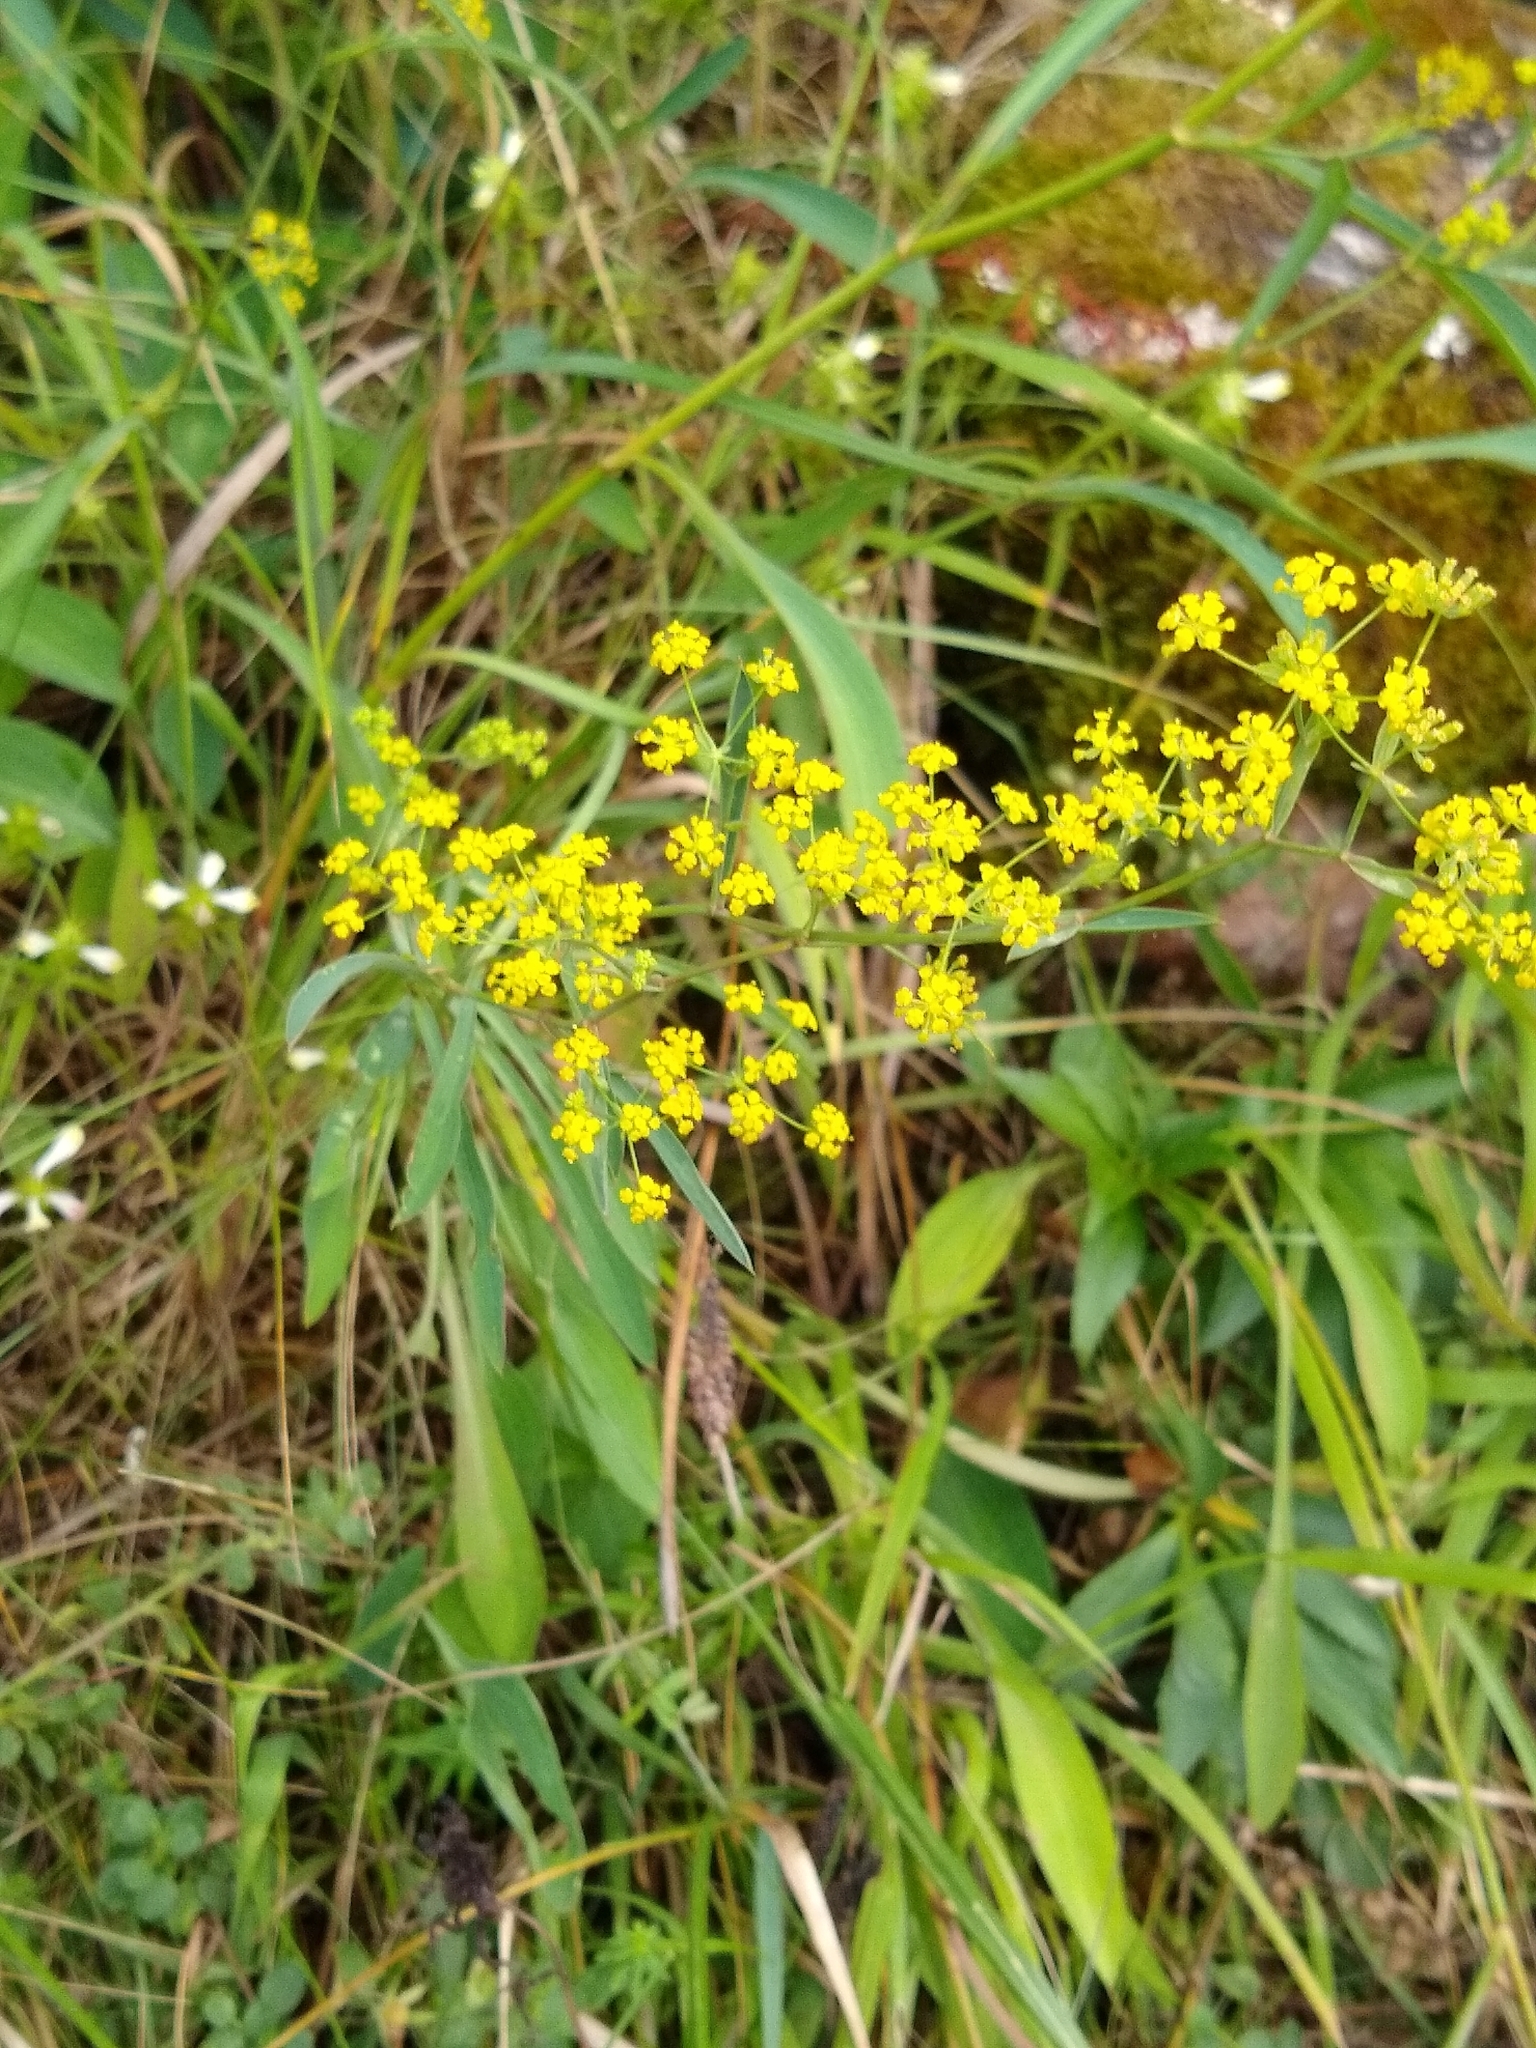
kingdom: Plantae
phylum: Tracheophyta
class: Magnoliopsida
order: Apiales
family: Apiaceae
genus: Bupleurum
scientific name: Bupleurum falcatum
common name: Sickle-leaved hare's-ear
